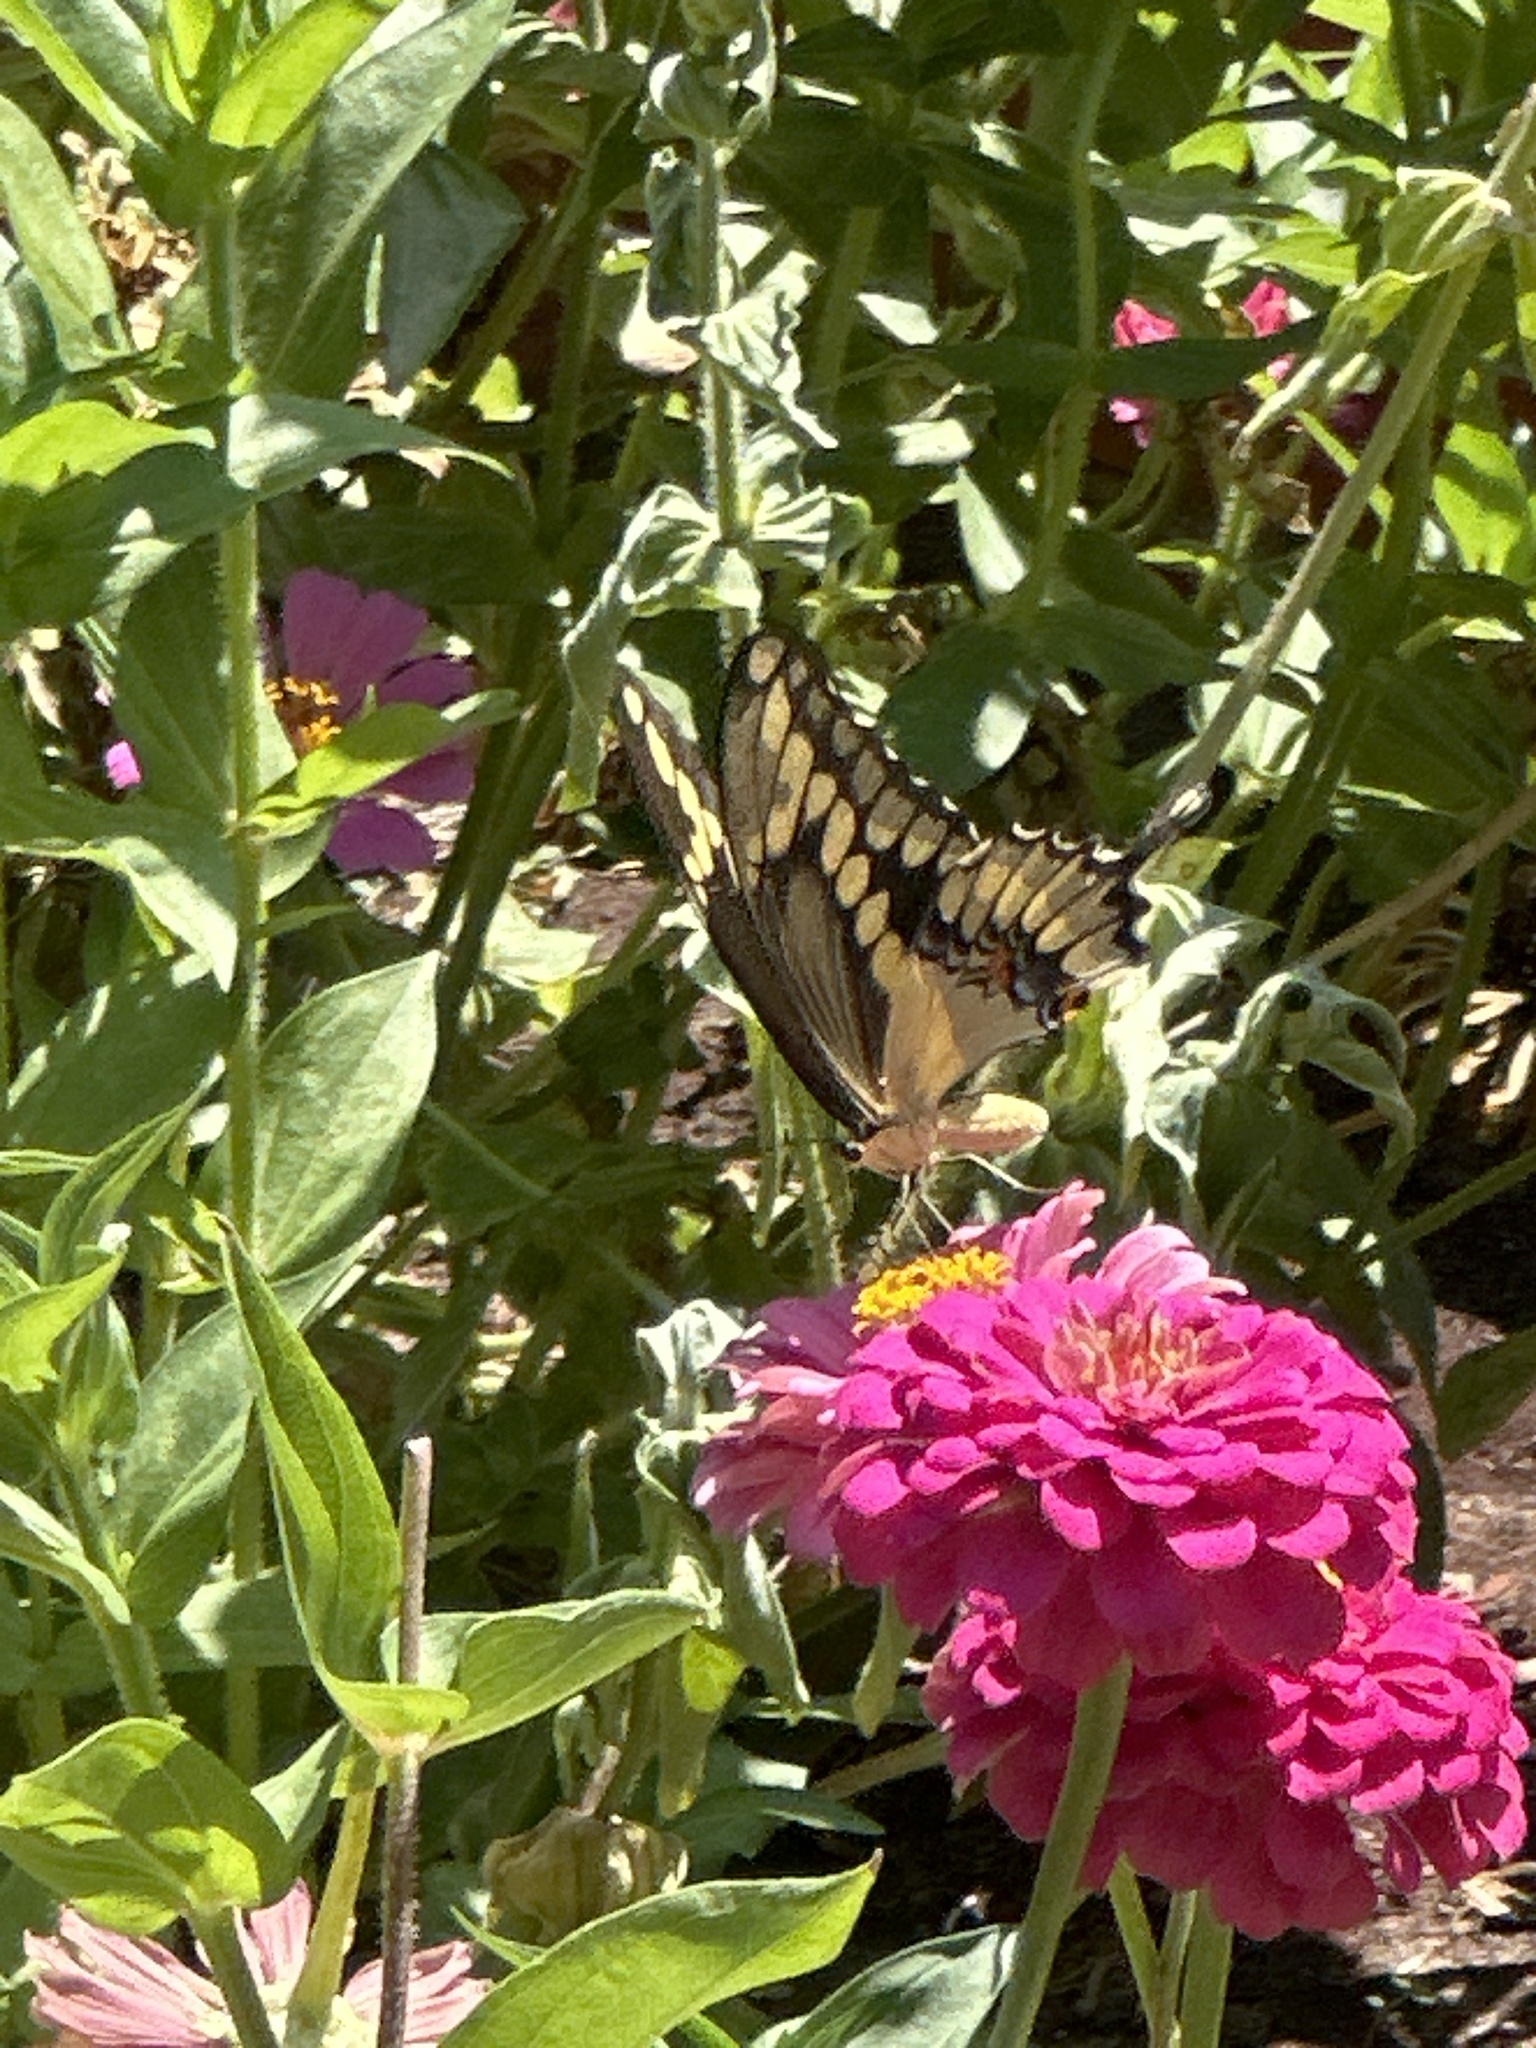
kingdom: Animalia
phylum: Arthropoda
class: Insecta
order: Lepidoptera
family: Papilionidae
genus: Papilio
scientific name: Papilio cresphontes
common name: Giant swallowtail
